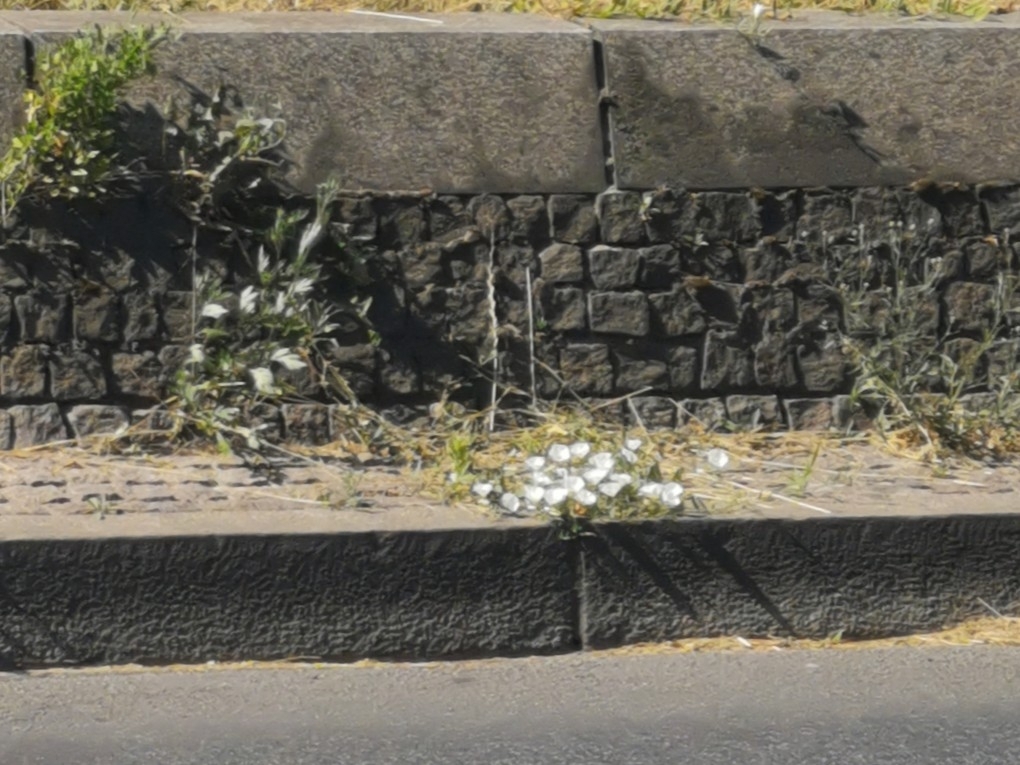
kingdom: Plantae
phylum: Tracheophyta
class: Magnoliopsida
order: Solanales
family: Convolvulaceae
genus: Convolvulus
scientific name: Convolvulus arvensis
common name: Field bindweed
